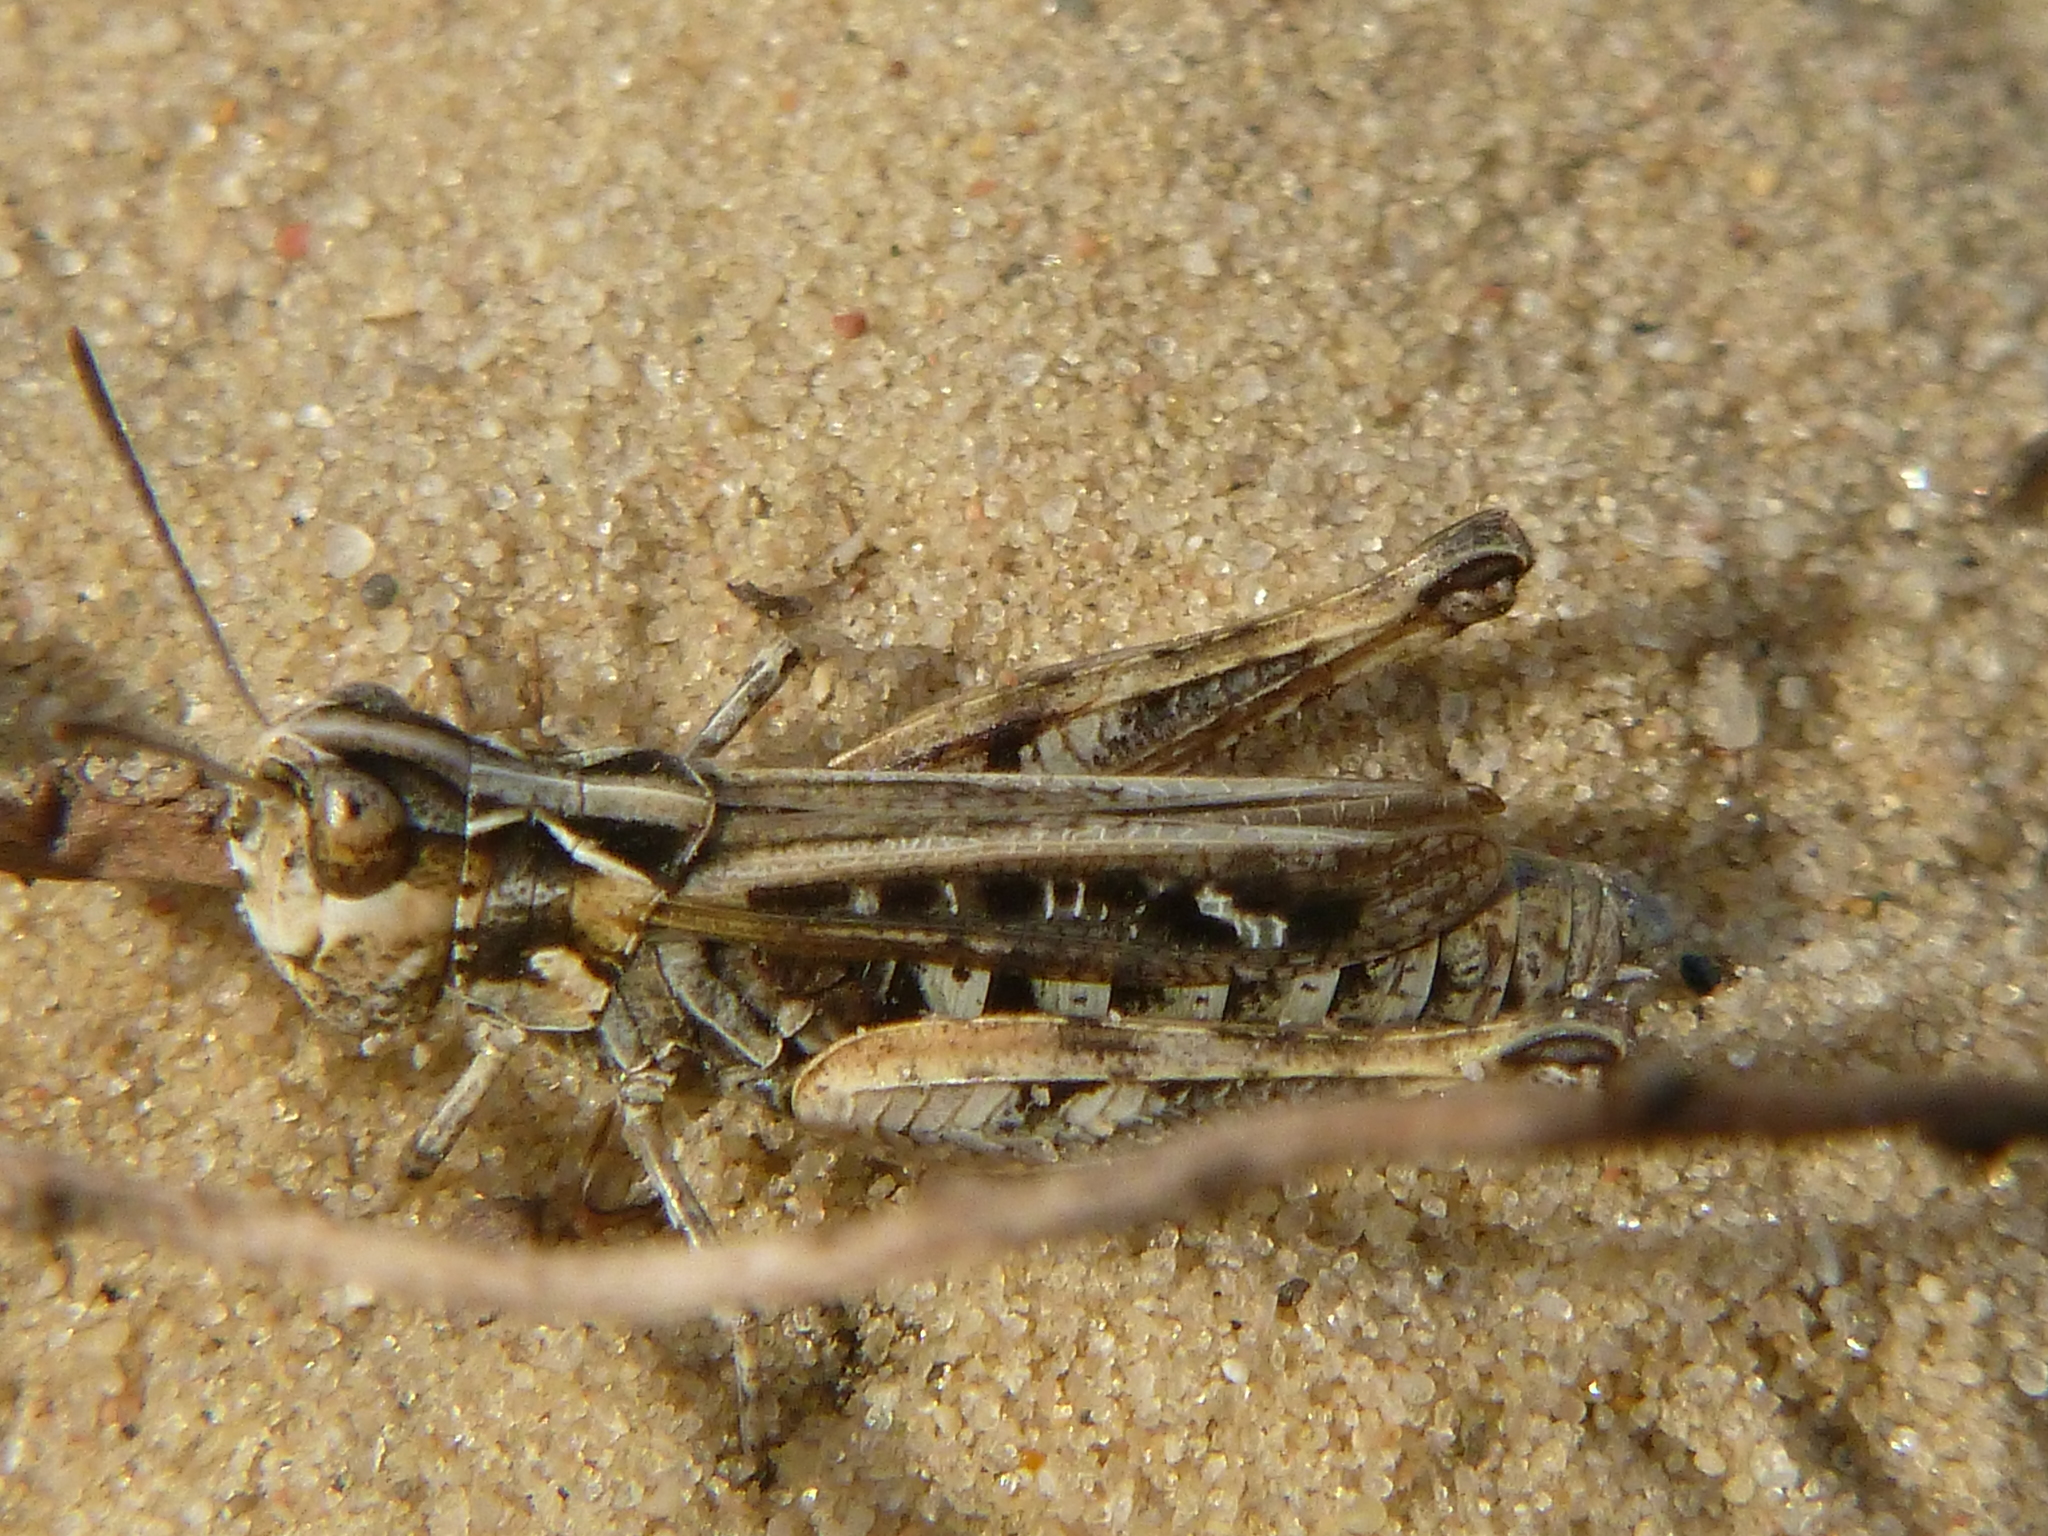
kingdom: Animalia
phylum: Arthropoda
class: Insecta
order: Orthoptera
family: Acrididae
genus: Myrmeleotettix
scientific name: Myrmeleotettix maculatus
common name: Mottled grasshopper
